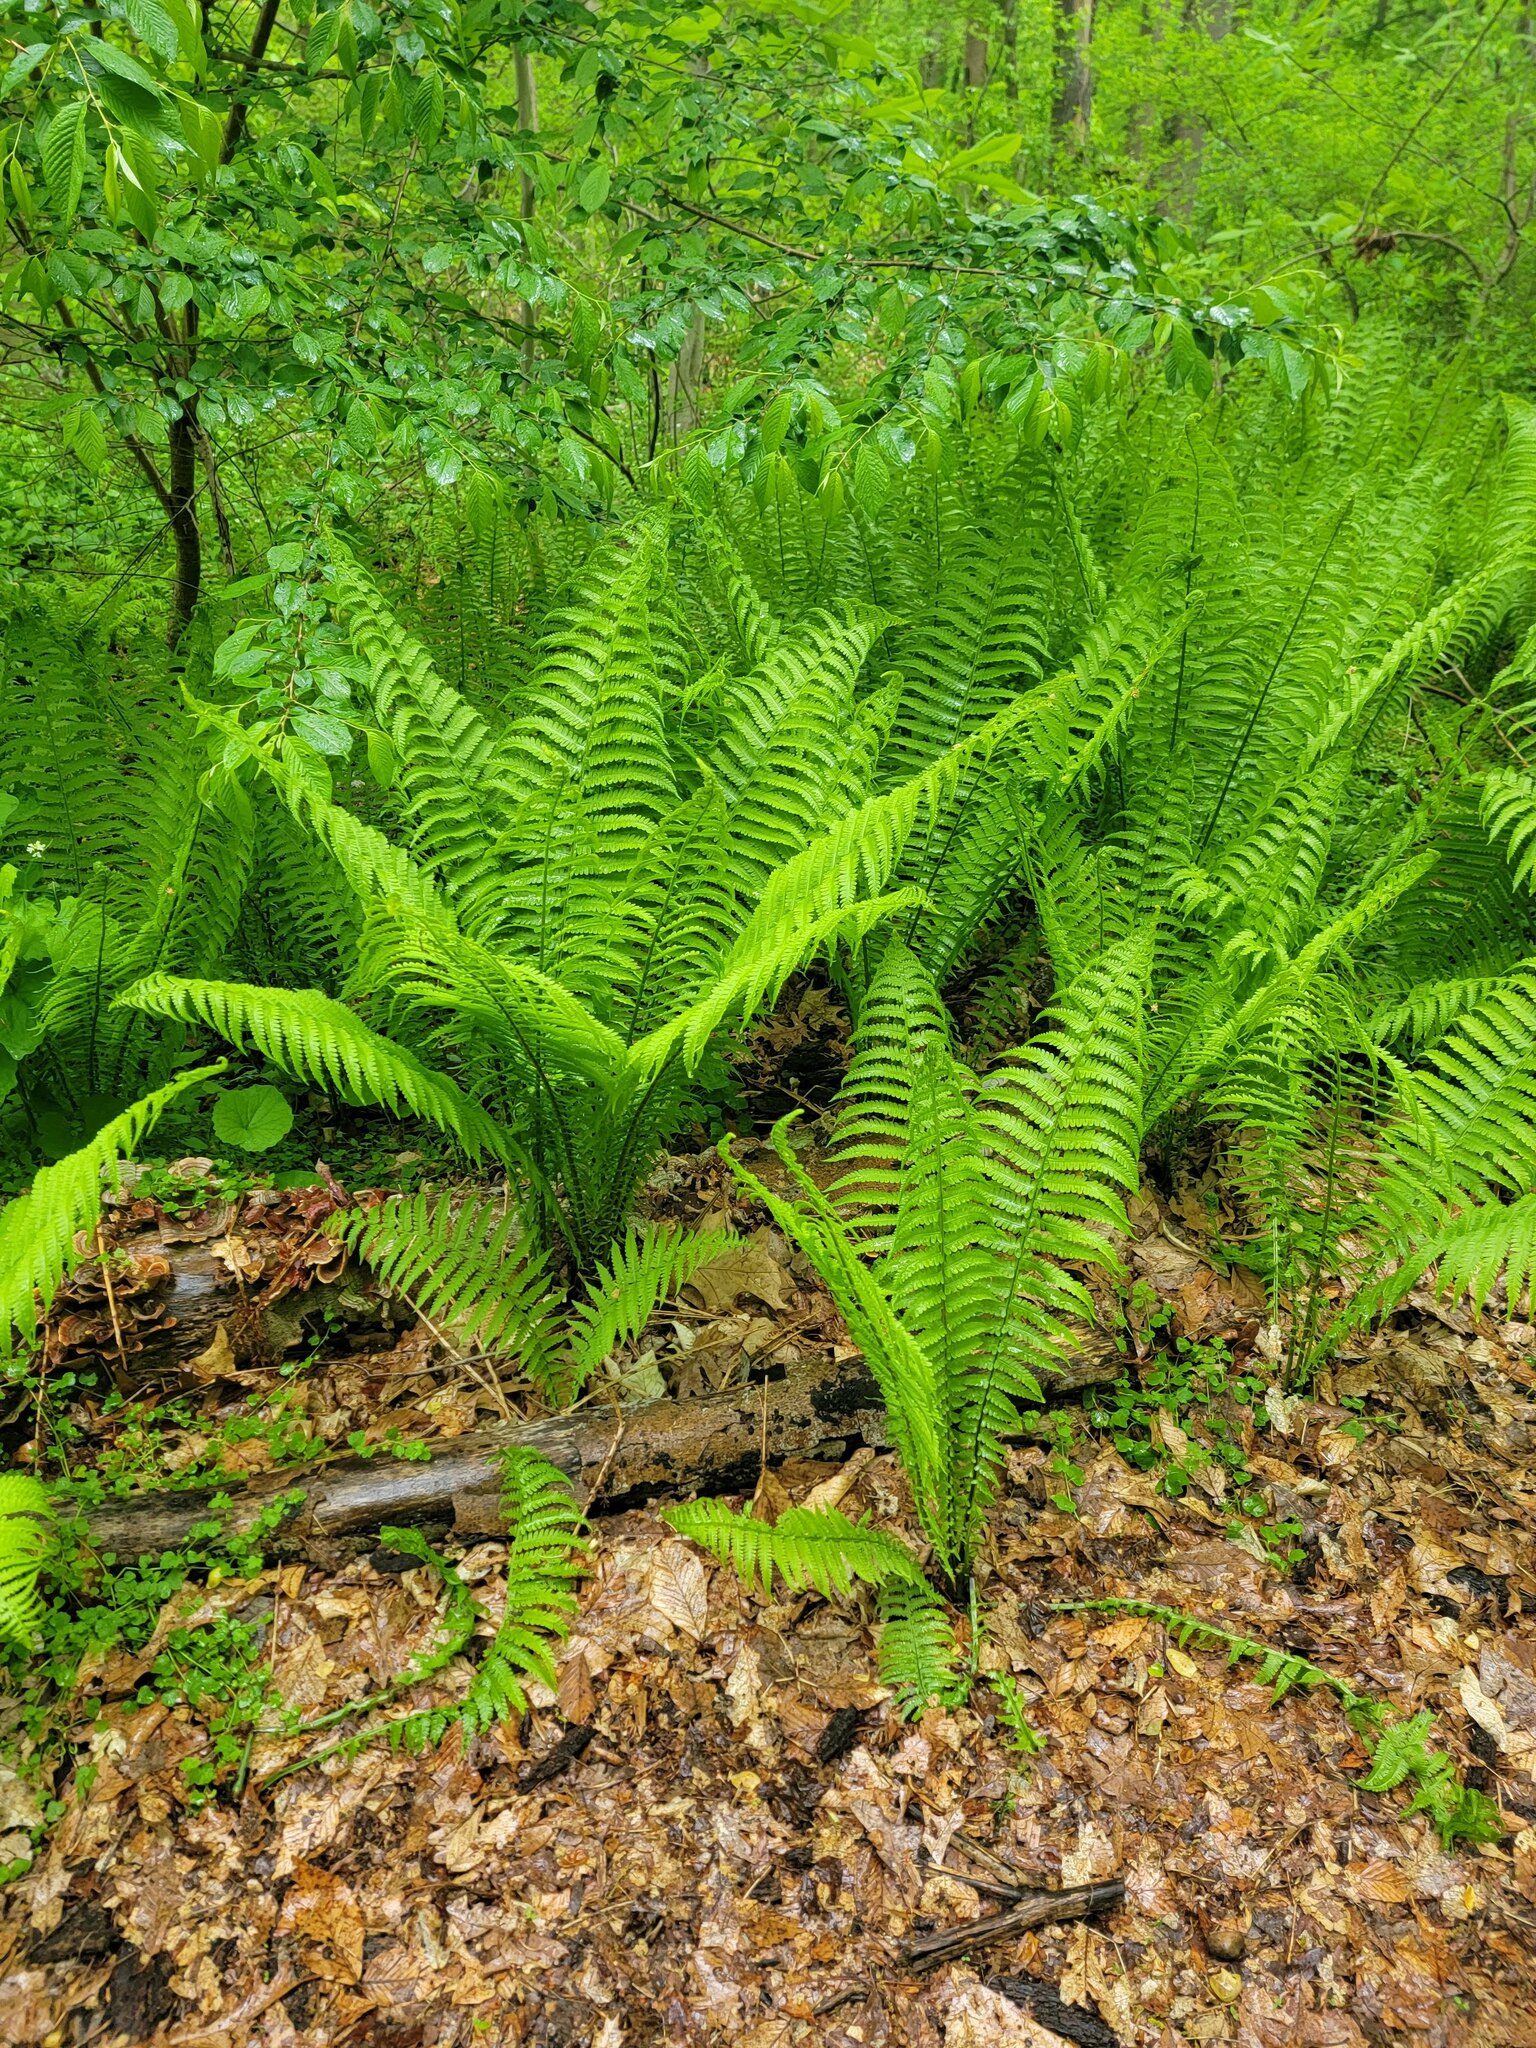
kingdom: Plantae
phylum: Tracheophyta
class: Polypodiopsida
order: Polypodiales
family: Onocleaceae
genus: Matteuccia
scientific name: Matteuccia struthiopteris
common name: Ostrich fern
